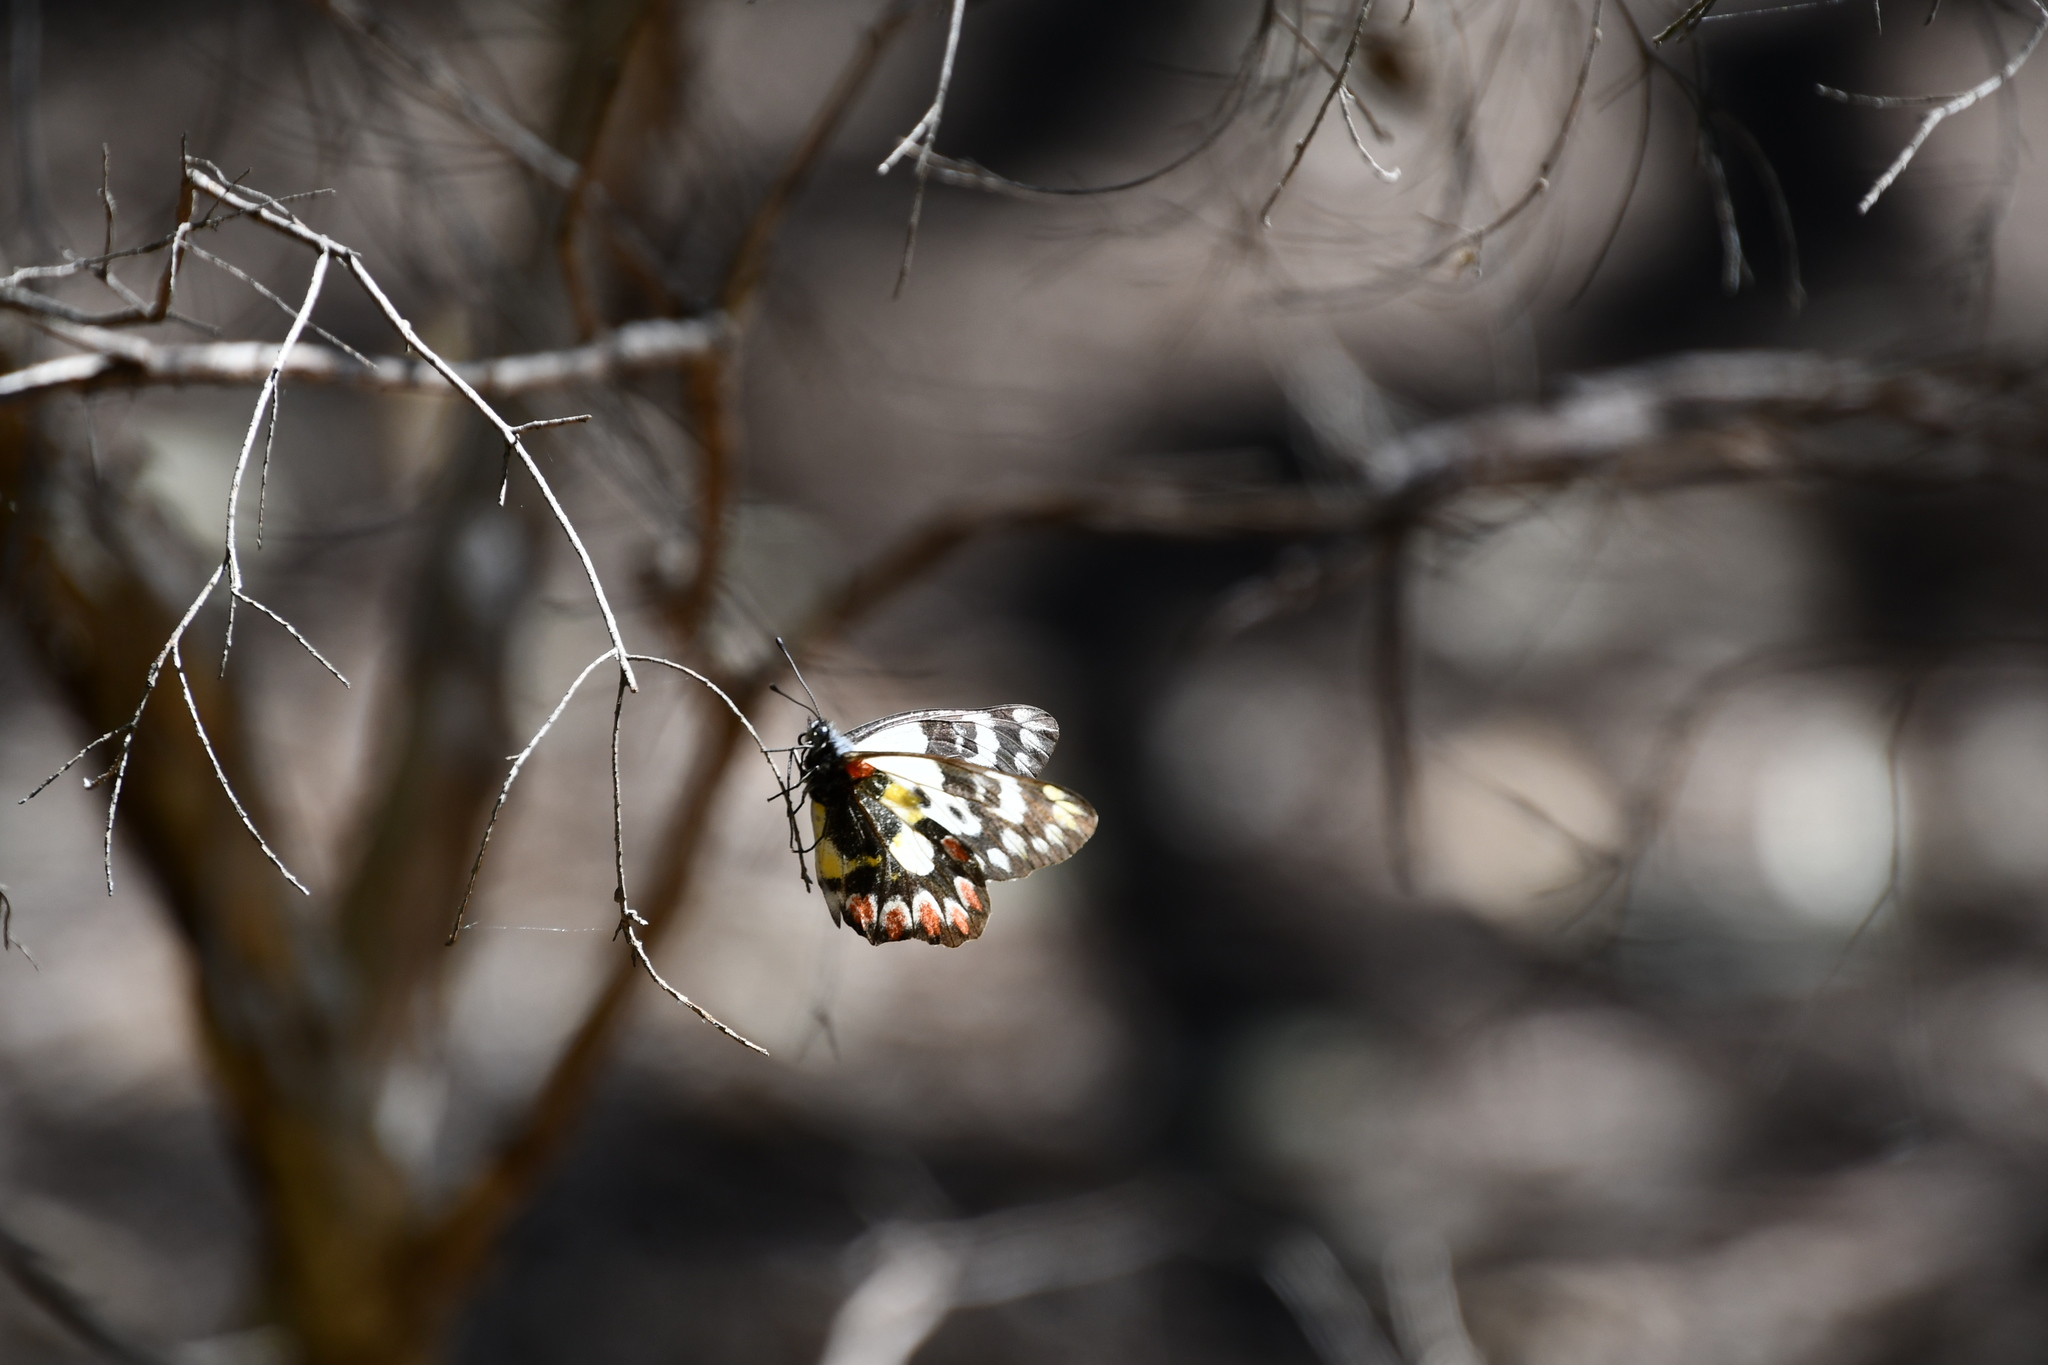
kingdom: Animalia
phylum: Arthropoda
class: Insecta
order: Lepidoptera
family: Pieridae
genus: Delias
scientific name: Delias aganippe
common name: Red-spotted jezebel
